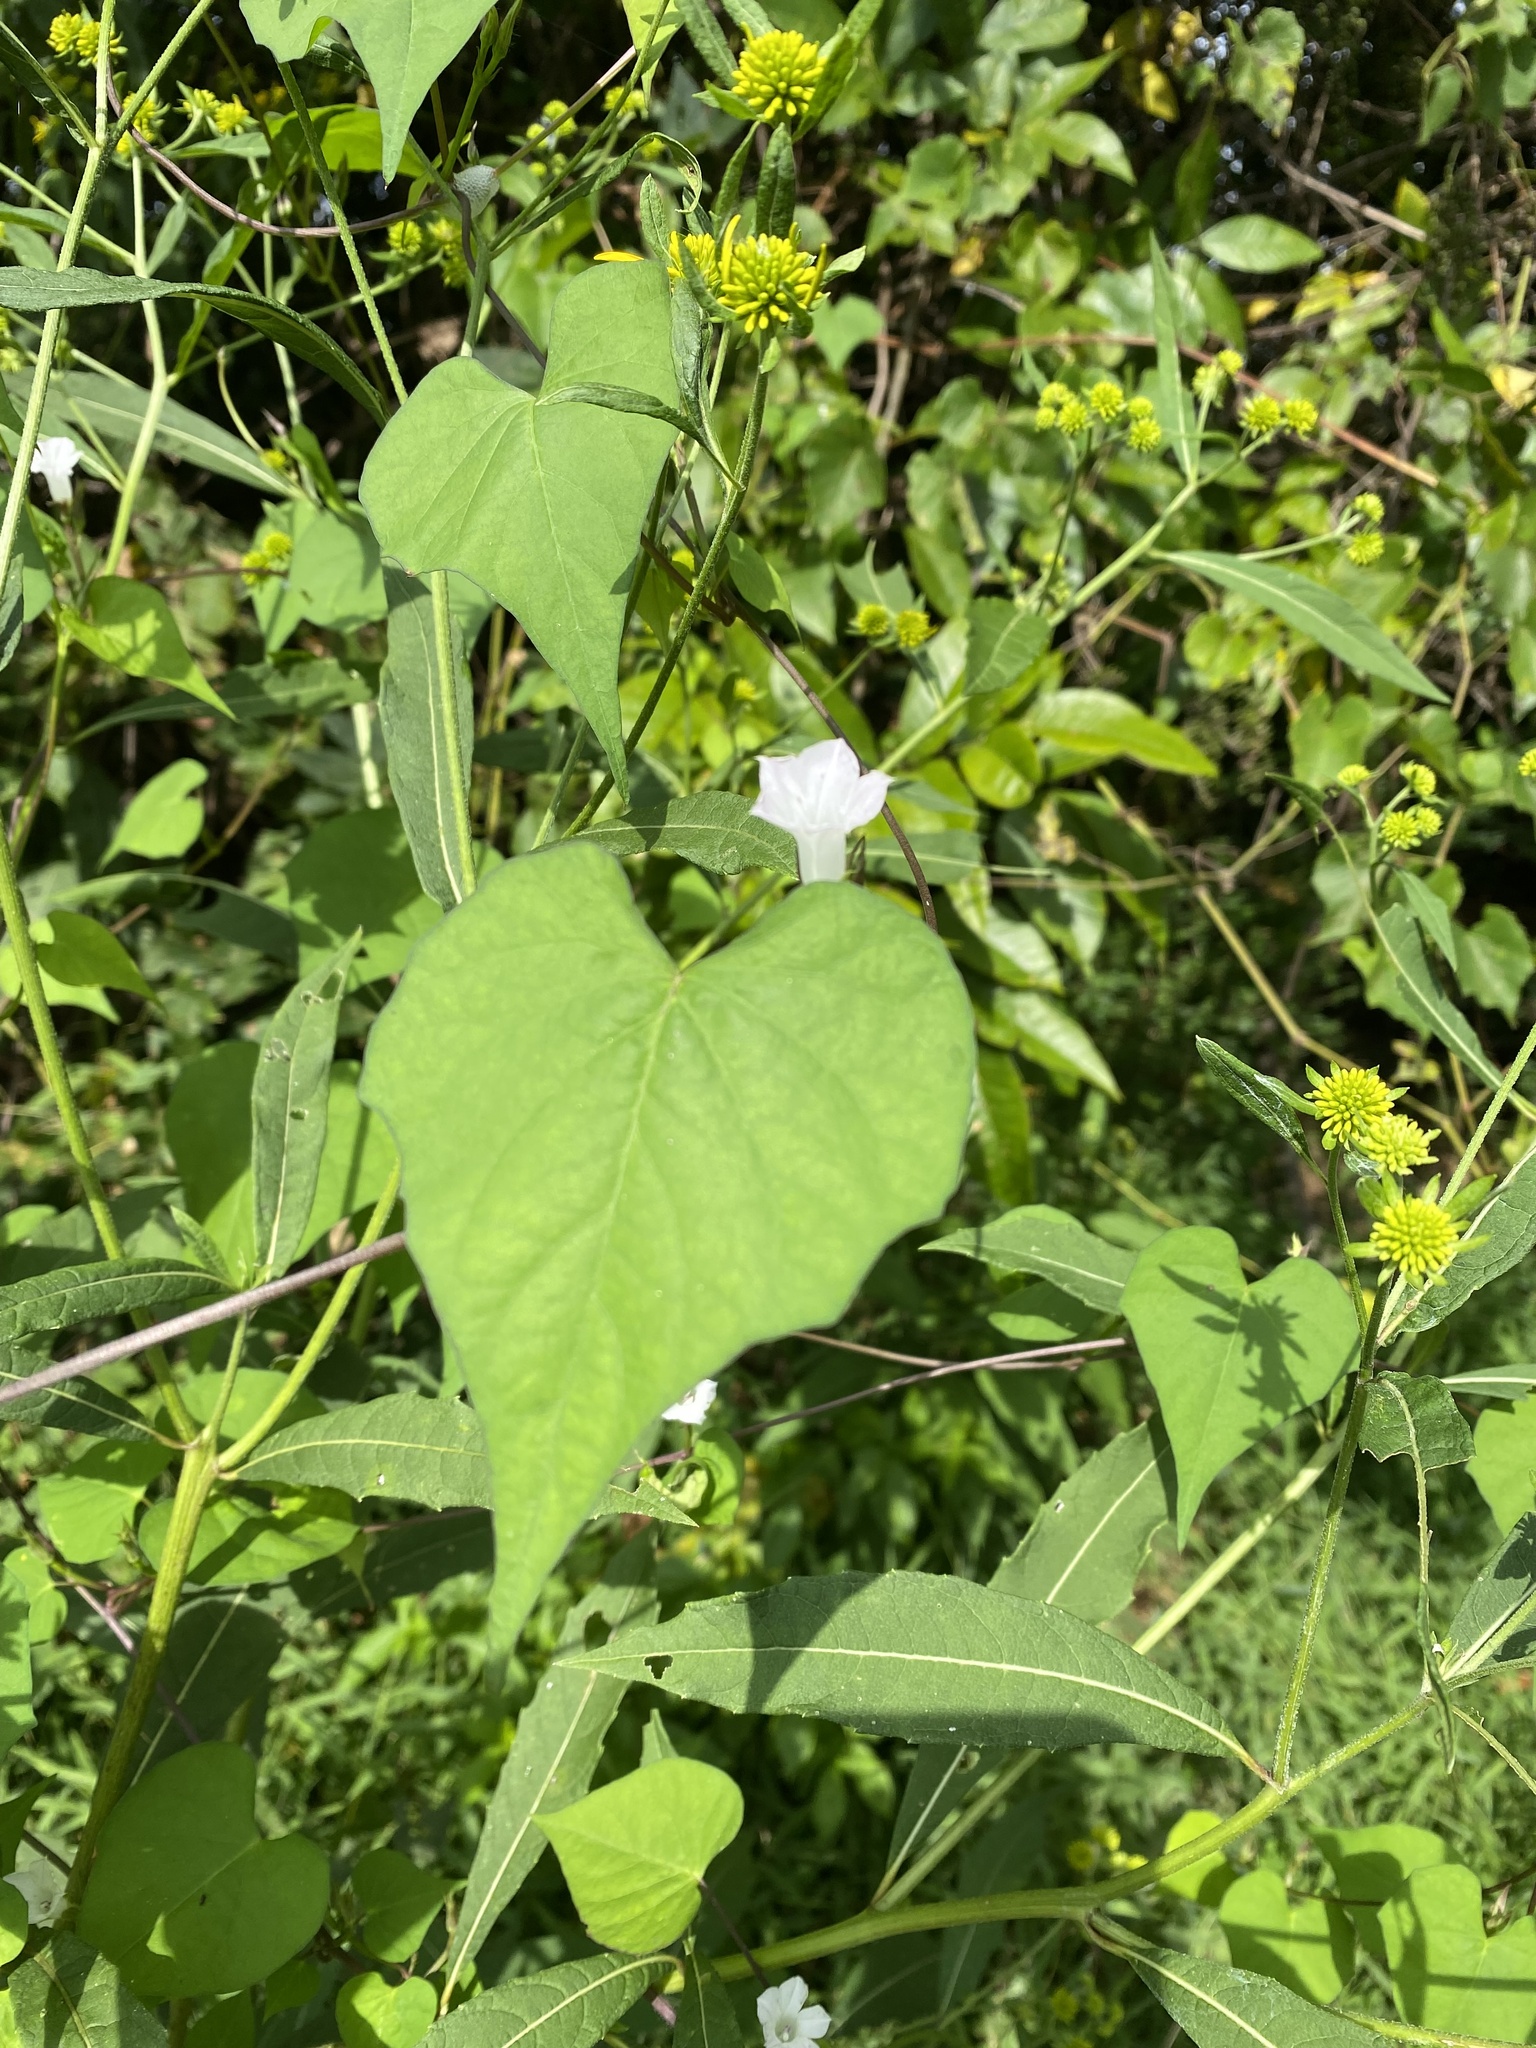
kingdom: Plantae
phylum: Tracheophyta
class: Magnoliopsida
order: Solanales
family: Convolvulaceae
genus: Ipomoea
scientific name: Ipomoea lacunosa
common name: White morning-glory
